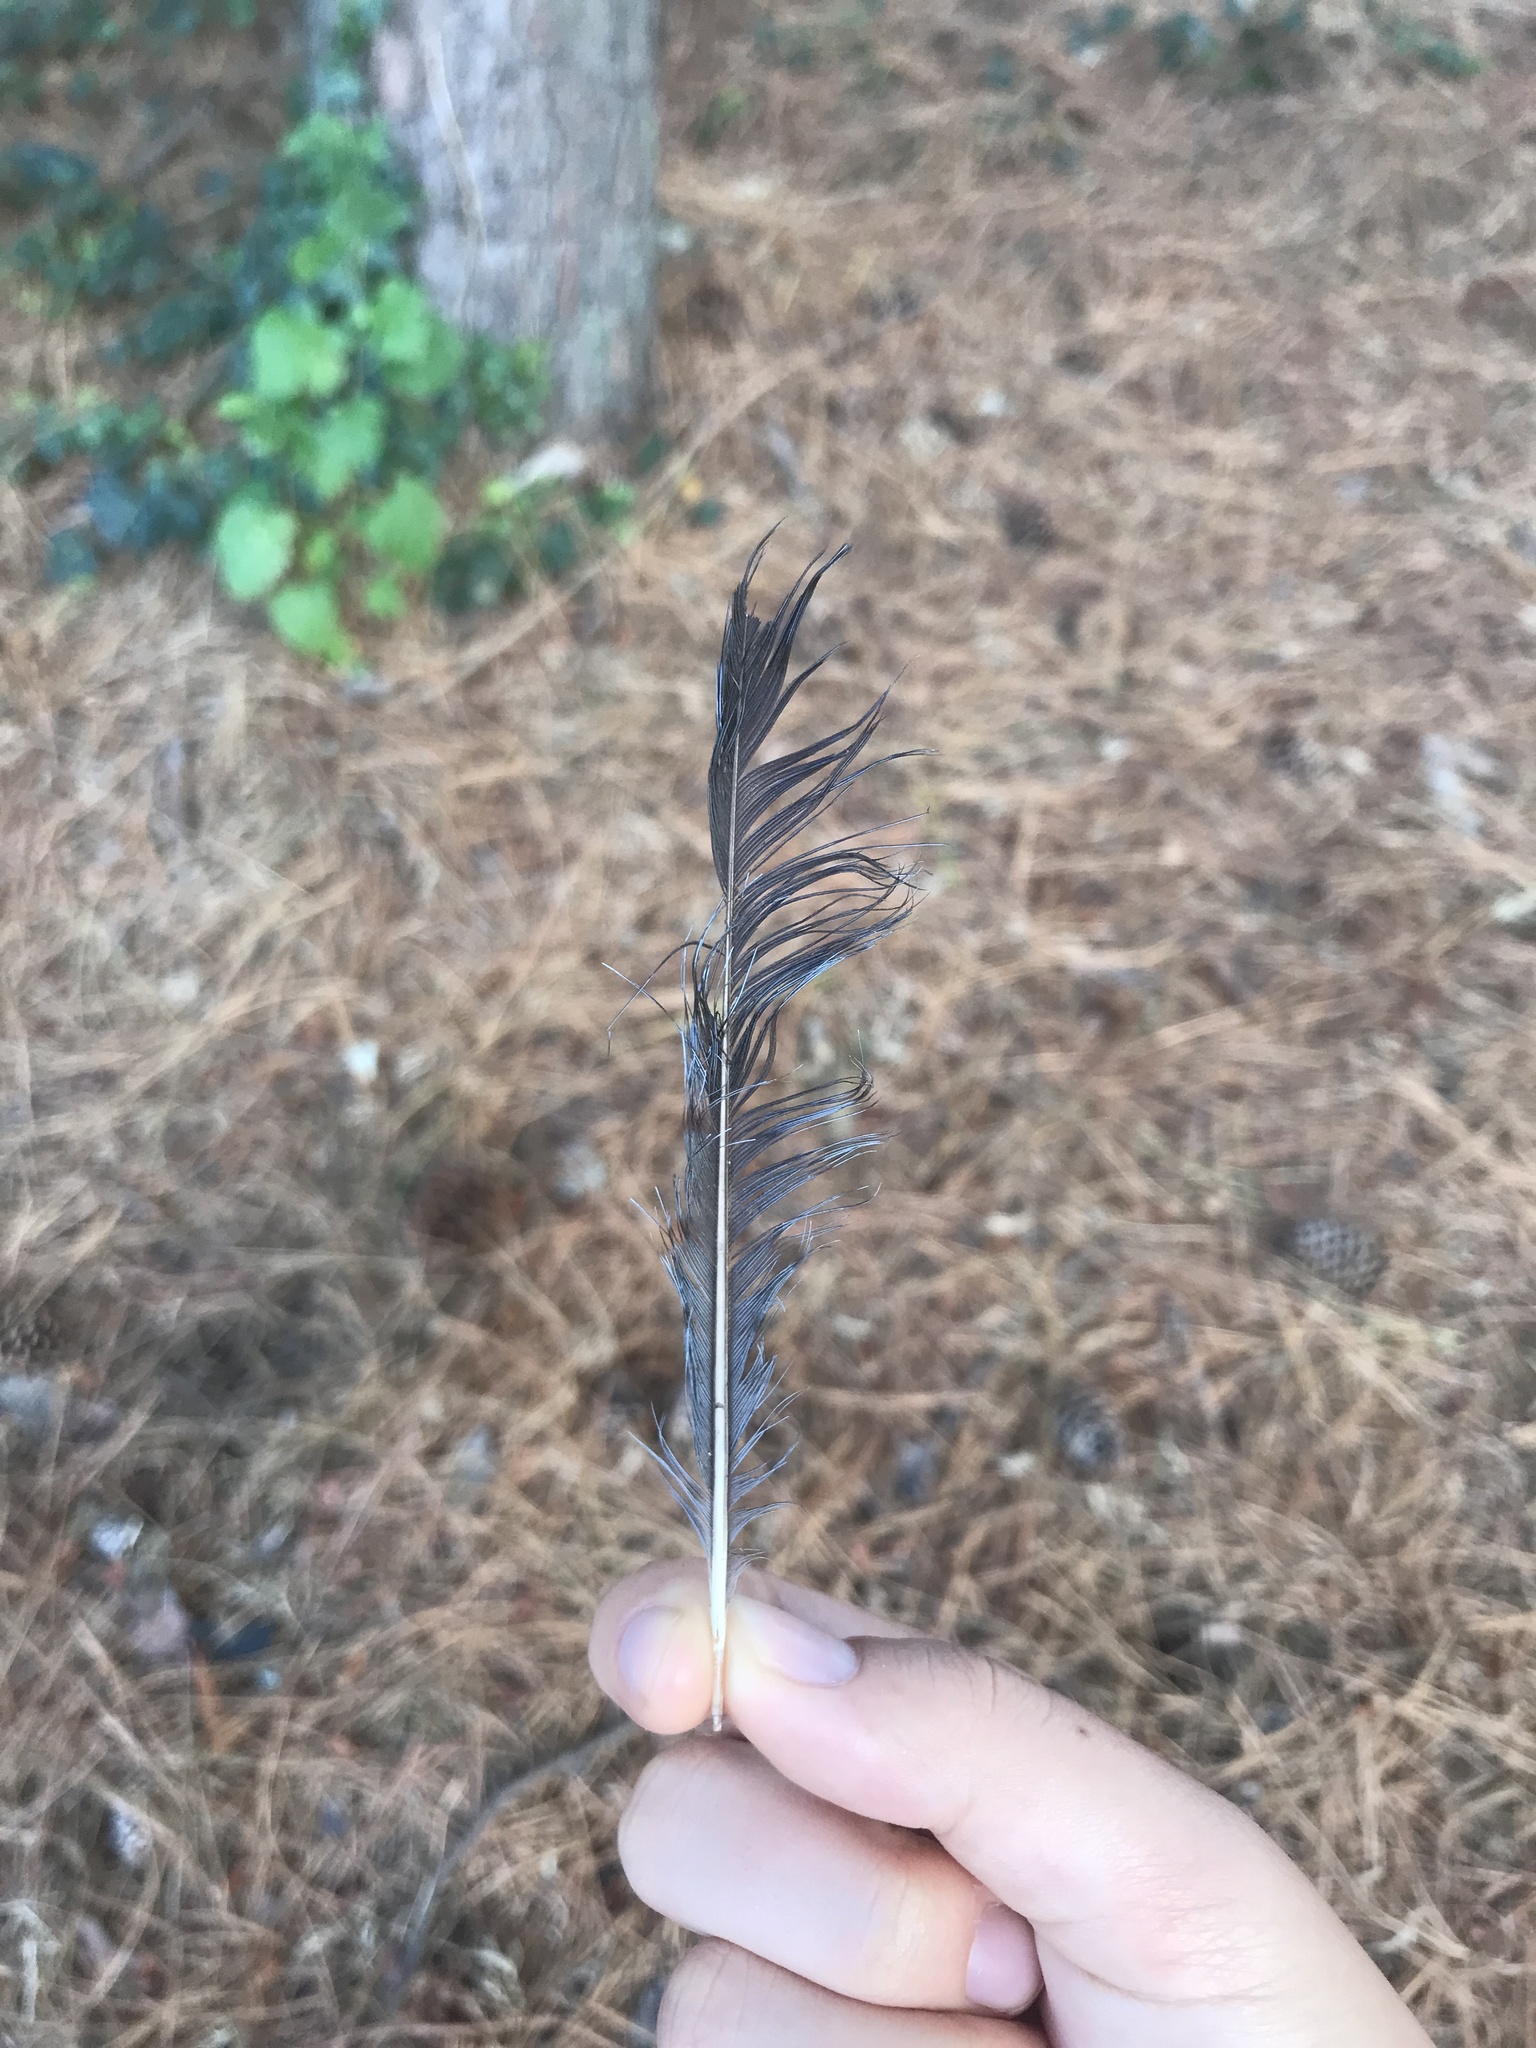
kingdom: Animalia
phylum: Chordata
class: Aves
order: Passeriformes
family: Corvidae
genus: Cyanocitta
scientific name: Cyanocitta cristata
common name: Blue jay
